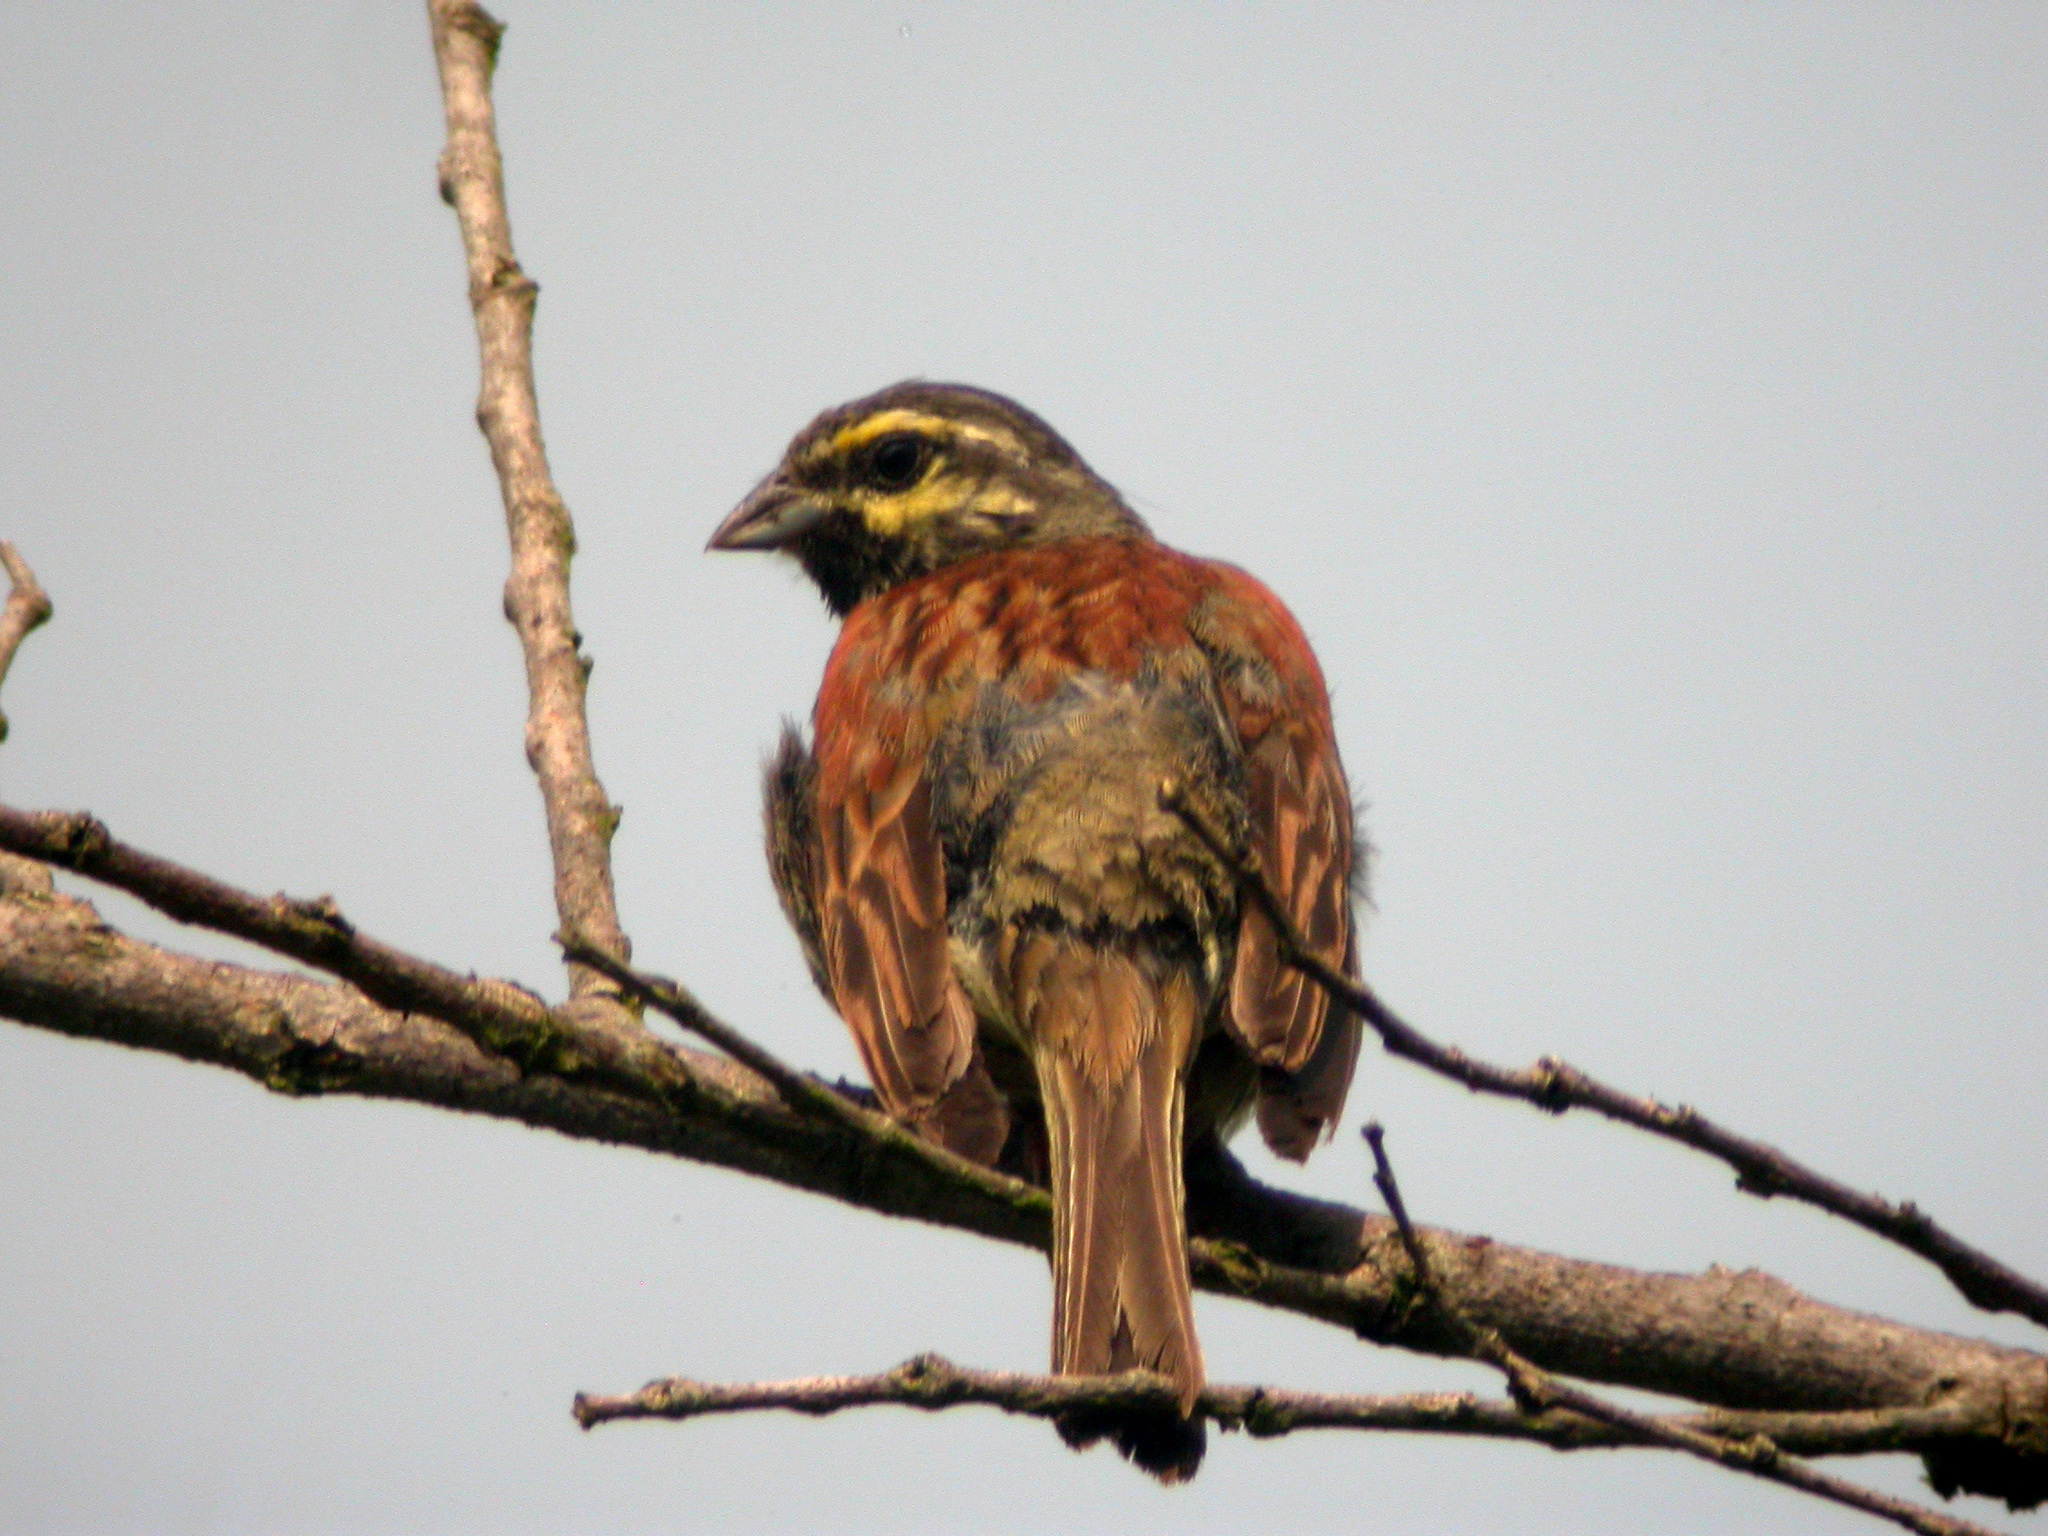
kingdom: Animalia
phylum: Chordata
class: Aves
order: Passeriformes
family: Emberizidae
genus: Emberiza
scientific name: Emberiza cirlus
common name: Cirl bunting
